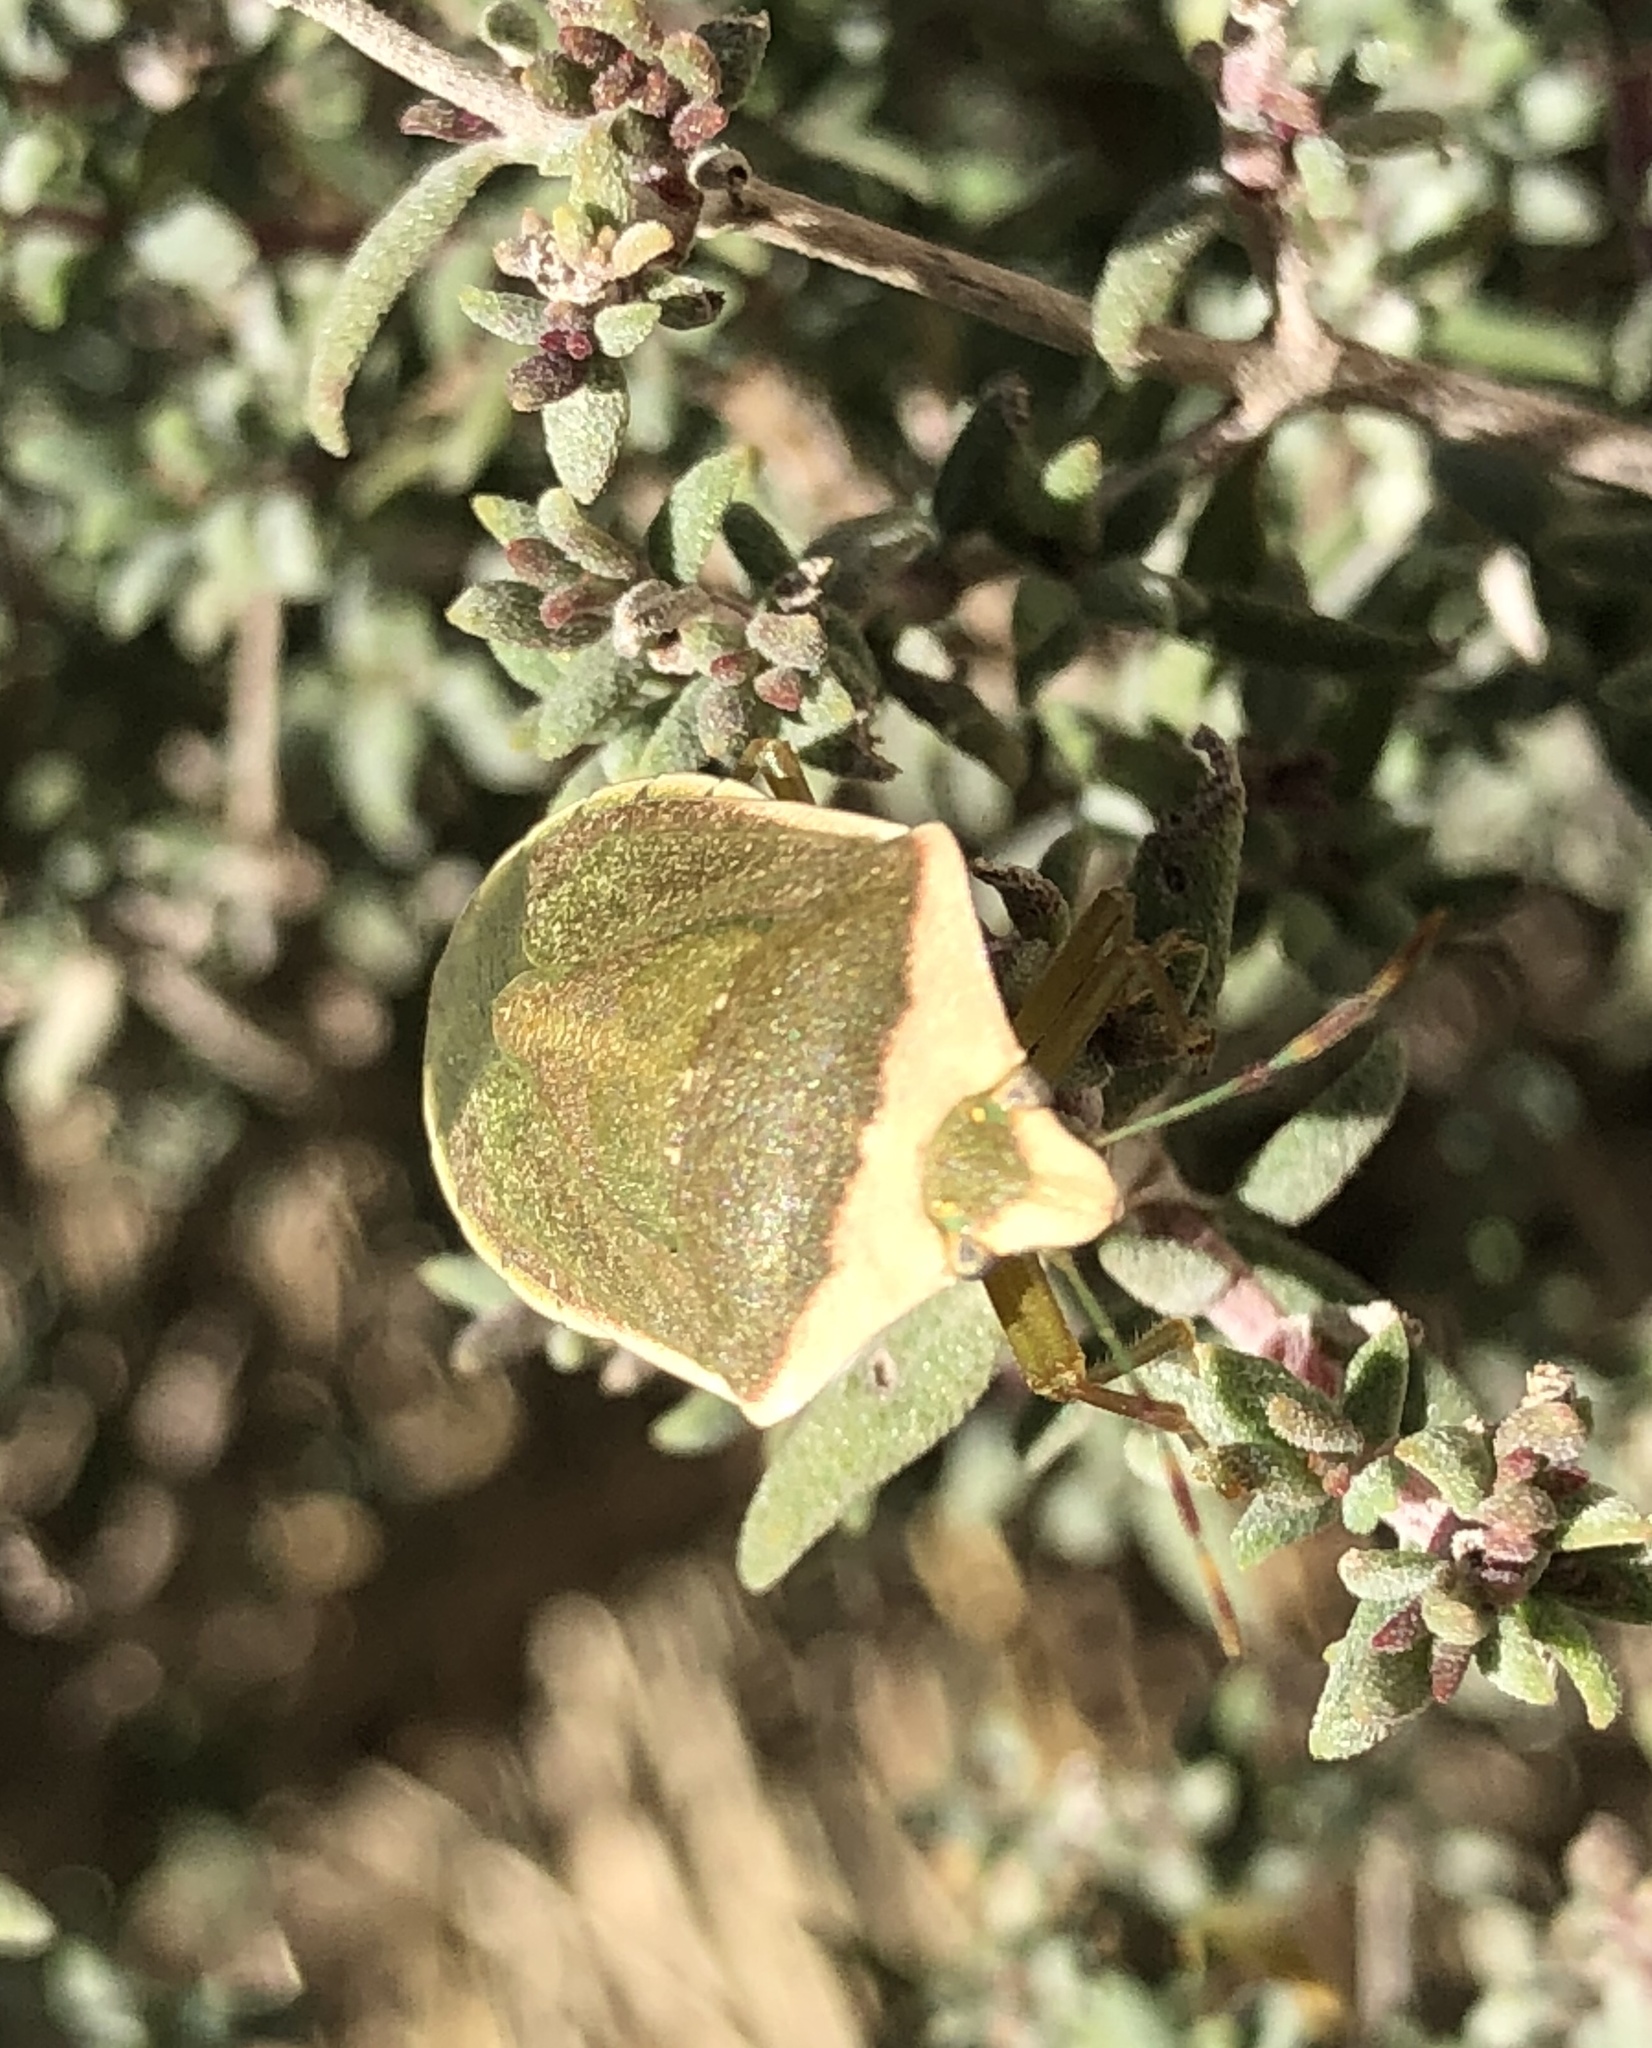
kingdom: Animalia
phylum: Arthropoda
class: Insecta
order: Hemiptera
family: Pentatomidae
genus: Nezara
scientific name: Nezara viridula
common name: Southern green stink bug
